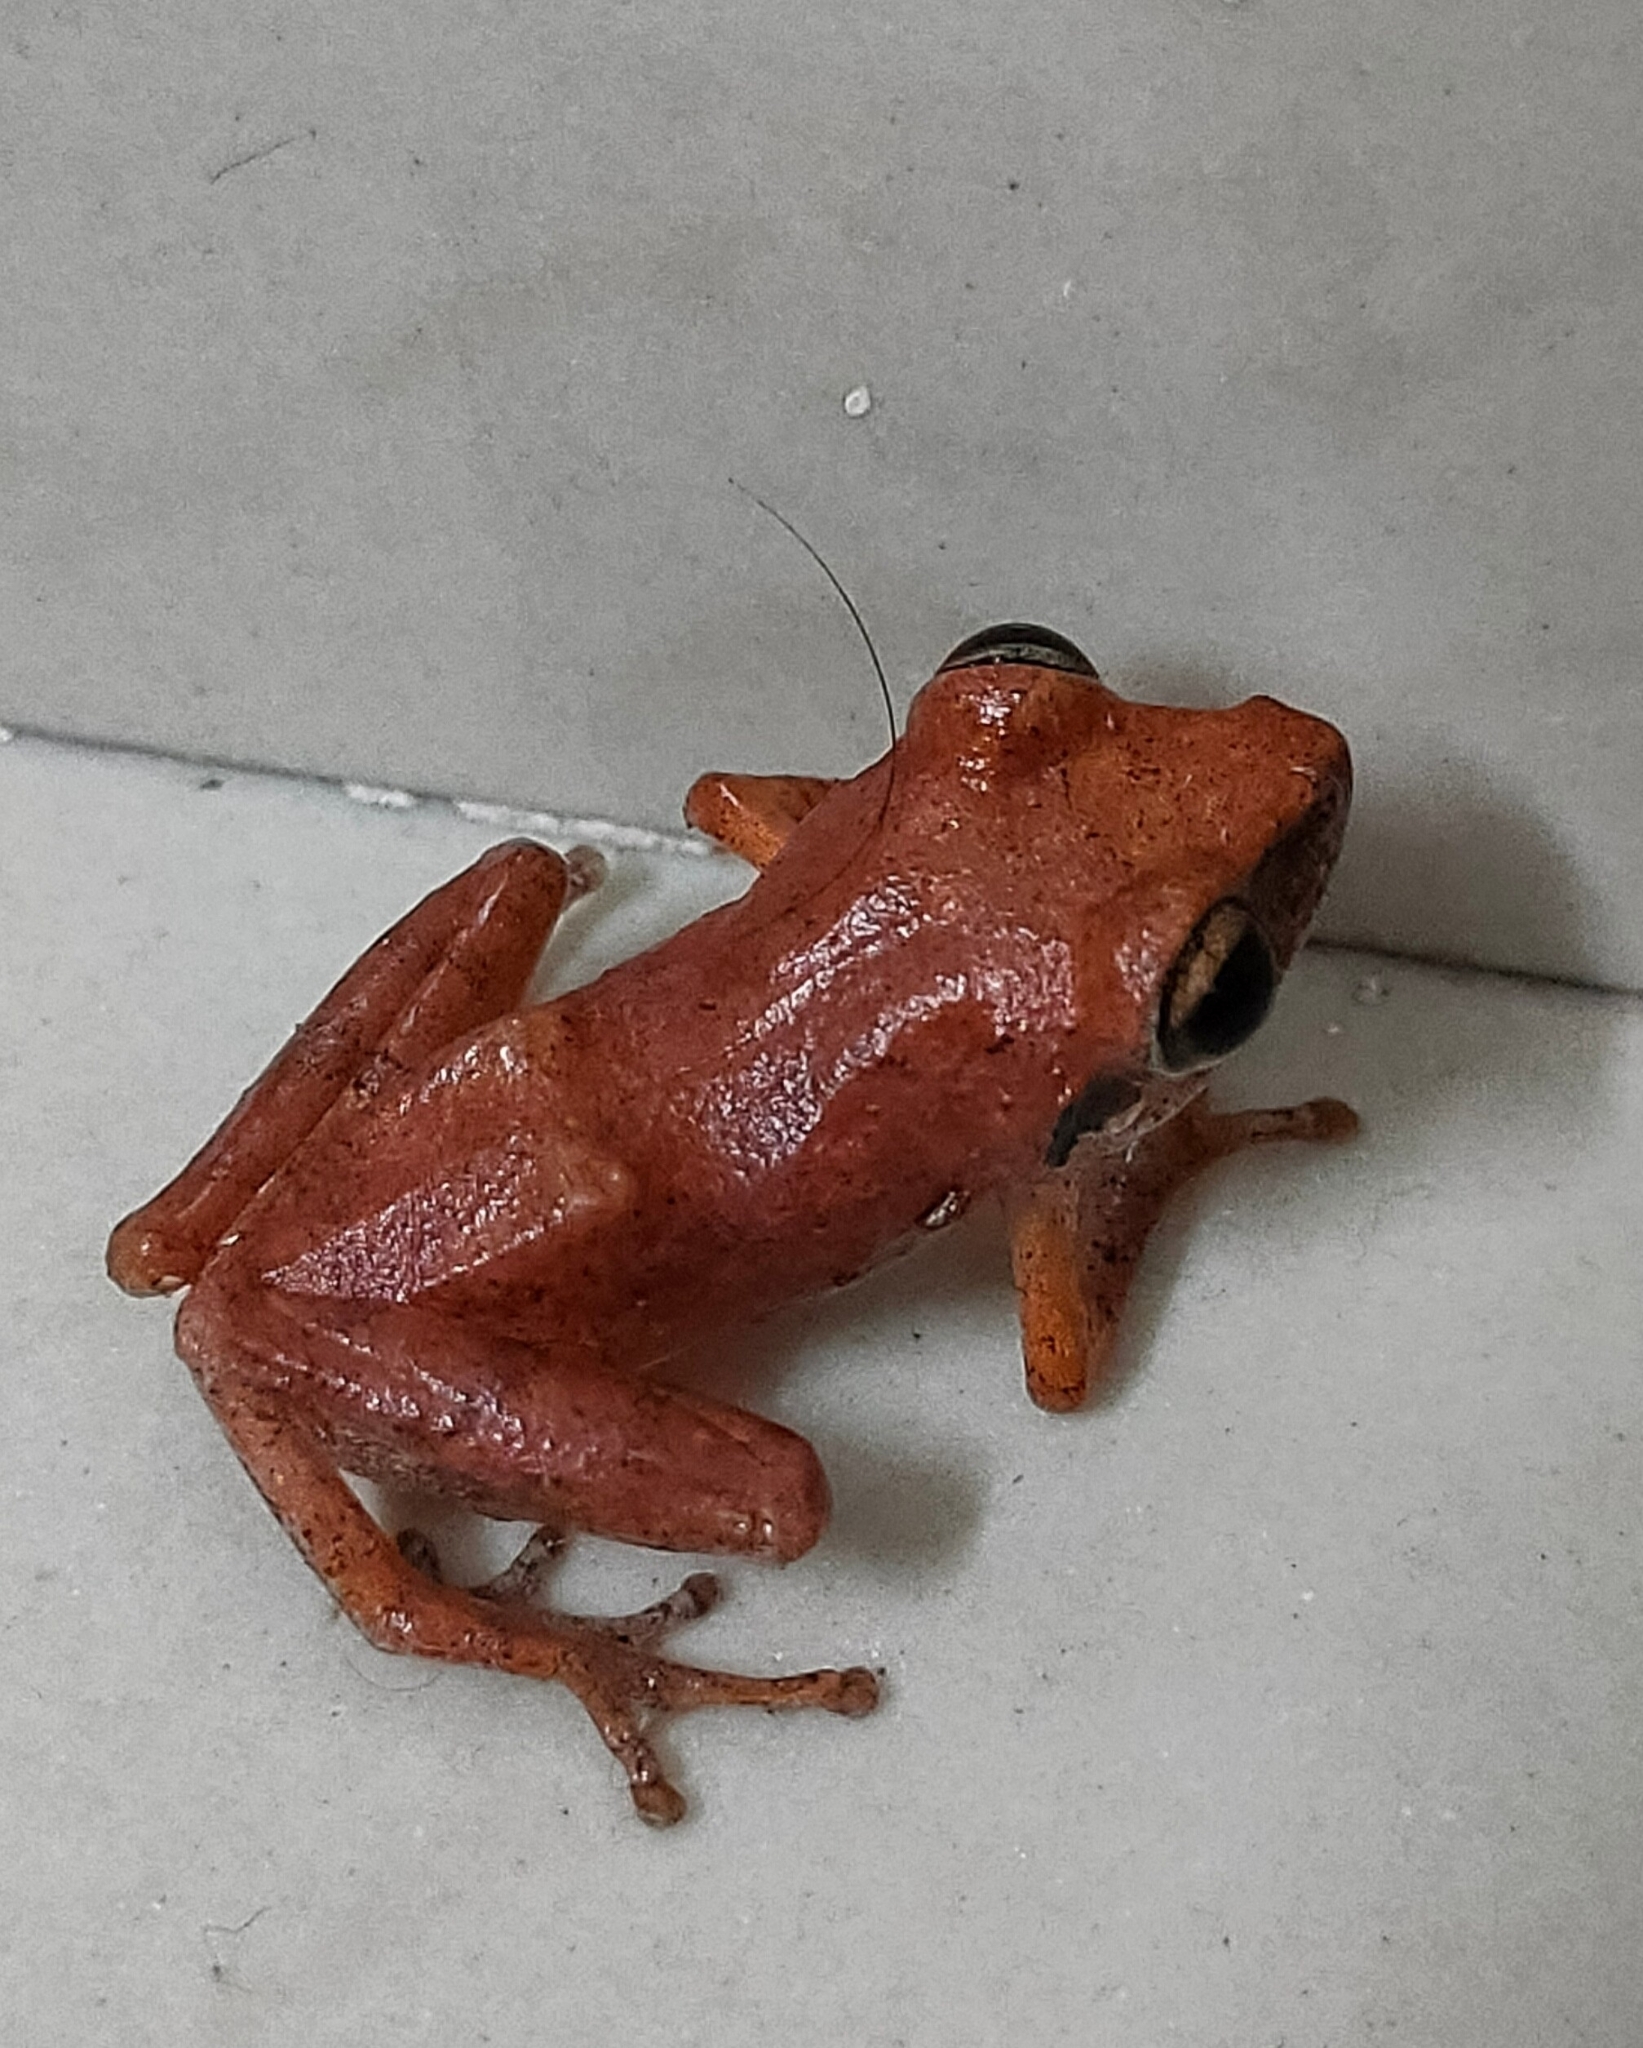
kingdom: Animalia
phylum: Chordata
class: Amphibia
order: Anura
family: Rhacophoridae
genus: Pseudophilautus
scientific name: Pseudophilautus wynaadensis
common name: Dark-eared bush frog
